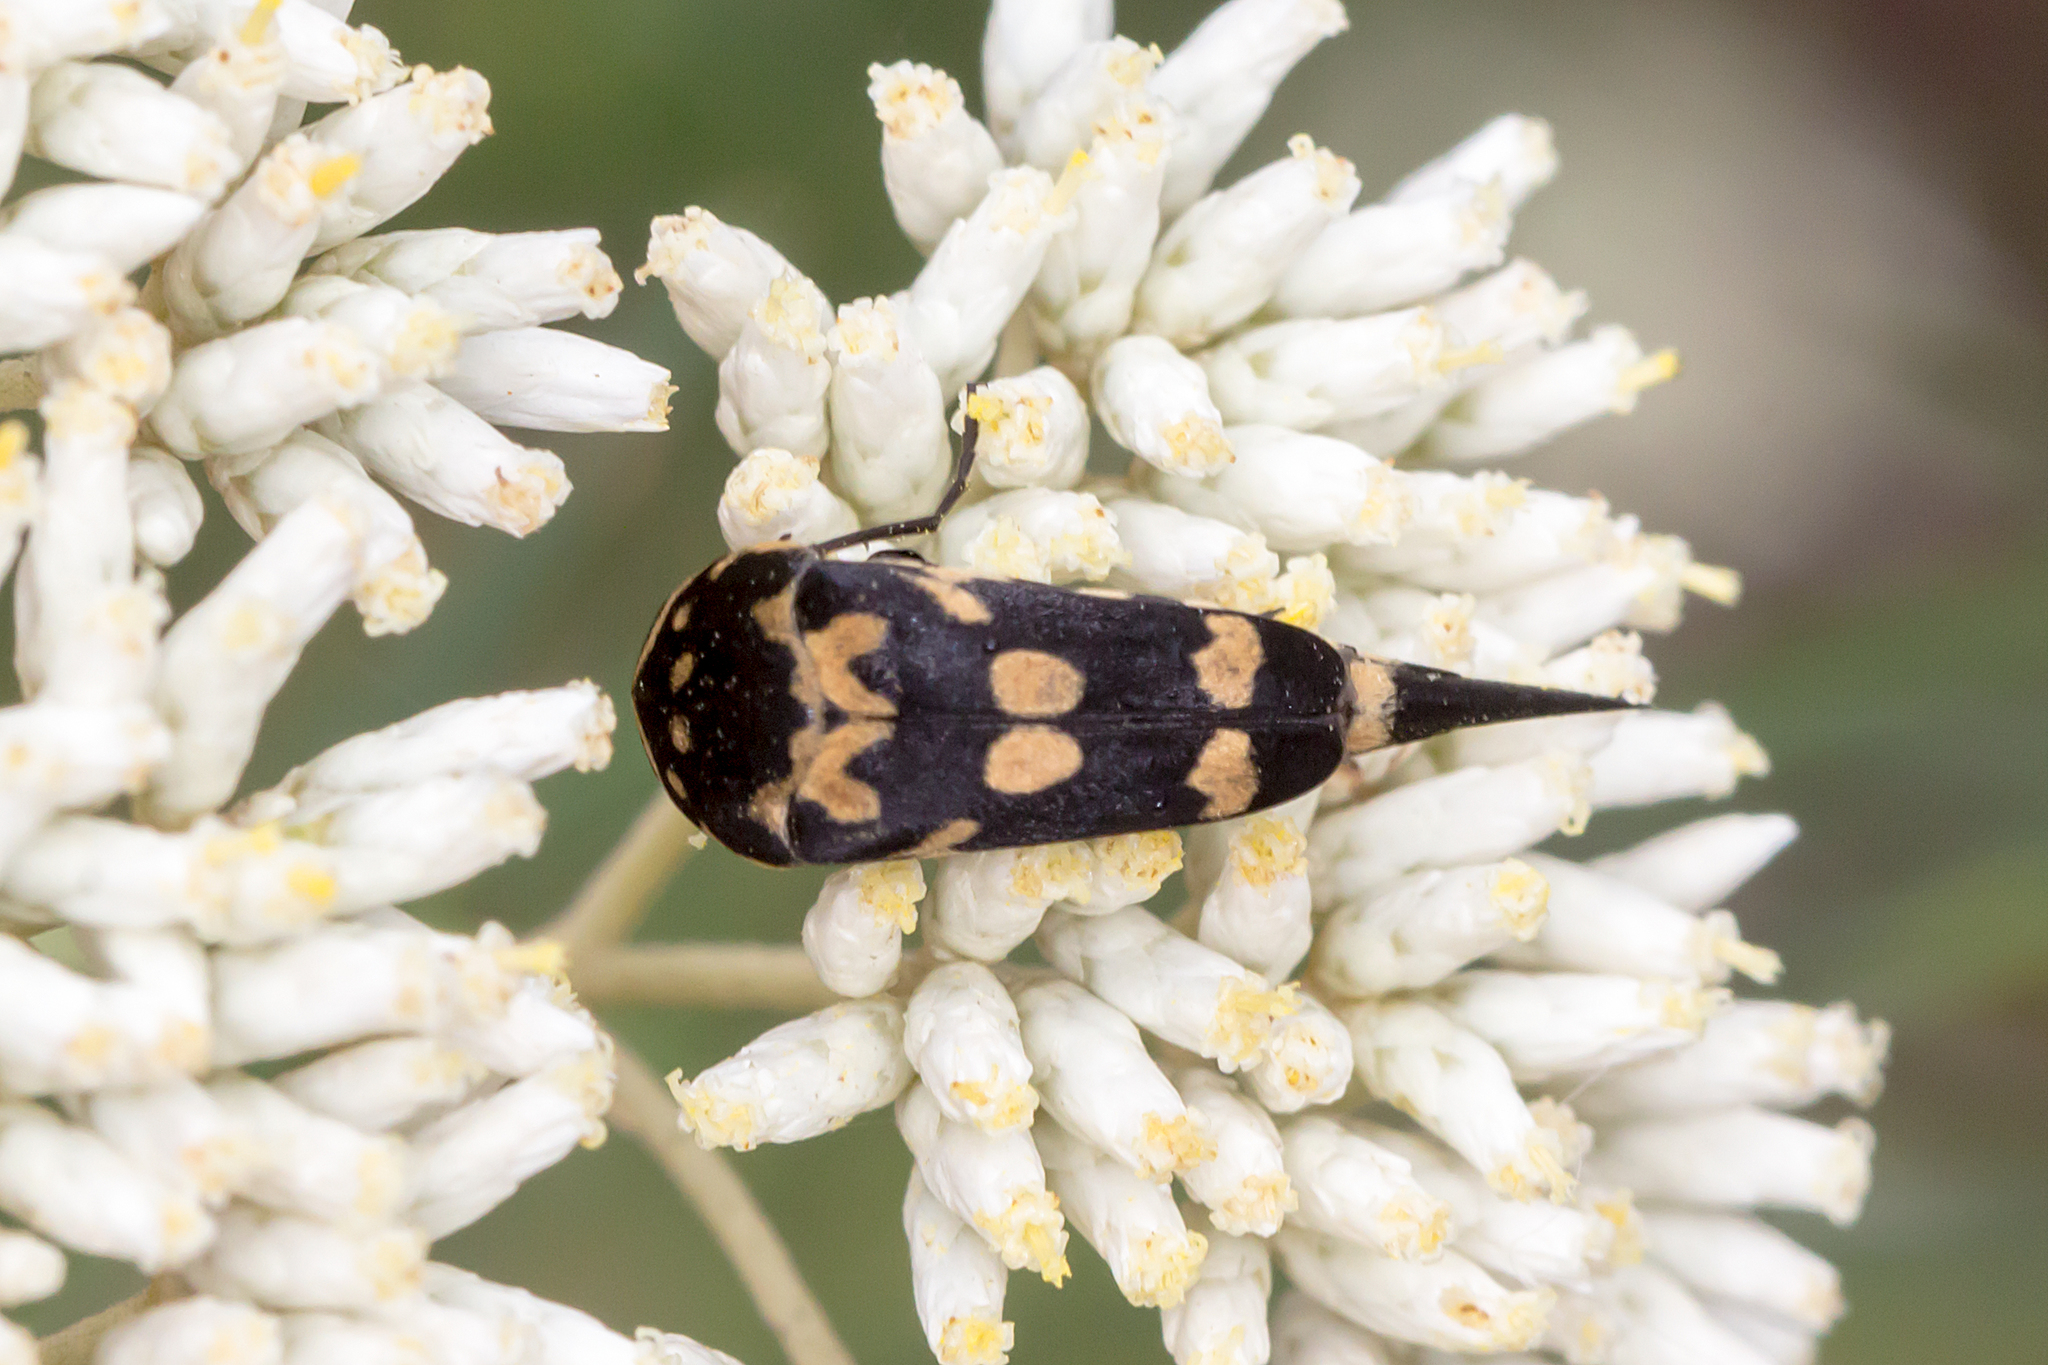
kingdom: Animalia
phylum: Arthropoda
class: Insecta
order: Coleoptera
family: Mordellidae
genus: Hoshihananomia
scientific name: Hoshihananomia
